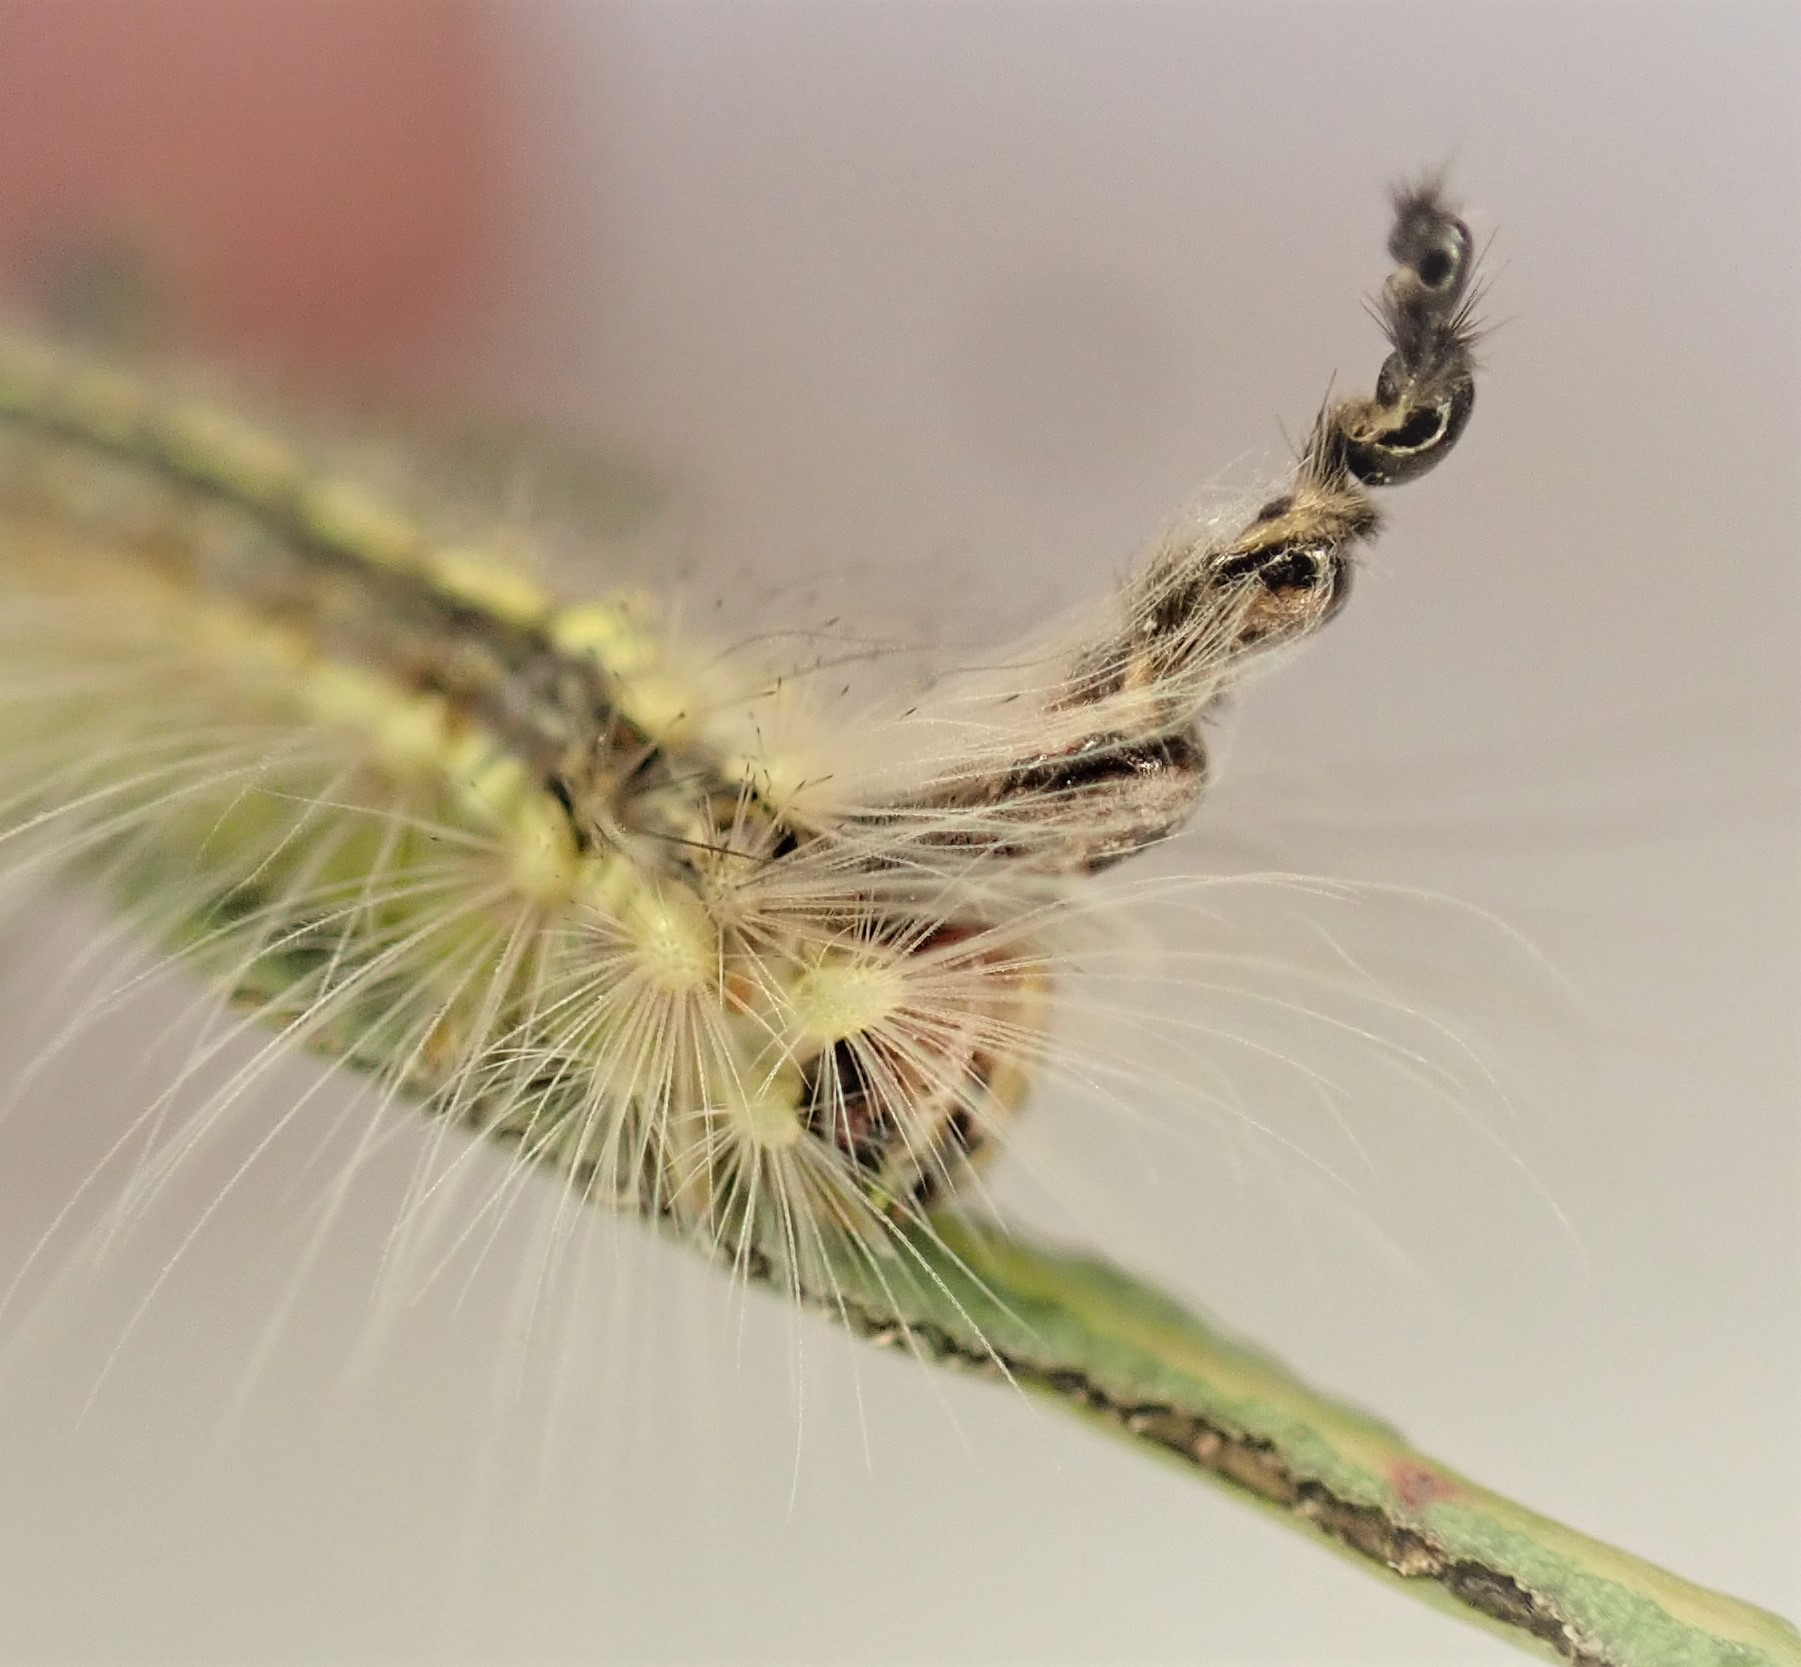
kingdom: Animalia
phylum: Arthropoda
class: Insecta
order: Lepidoptera
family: Nolidae
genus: Uraba
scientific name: Uraba lugens
